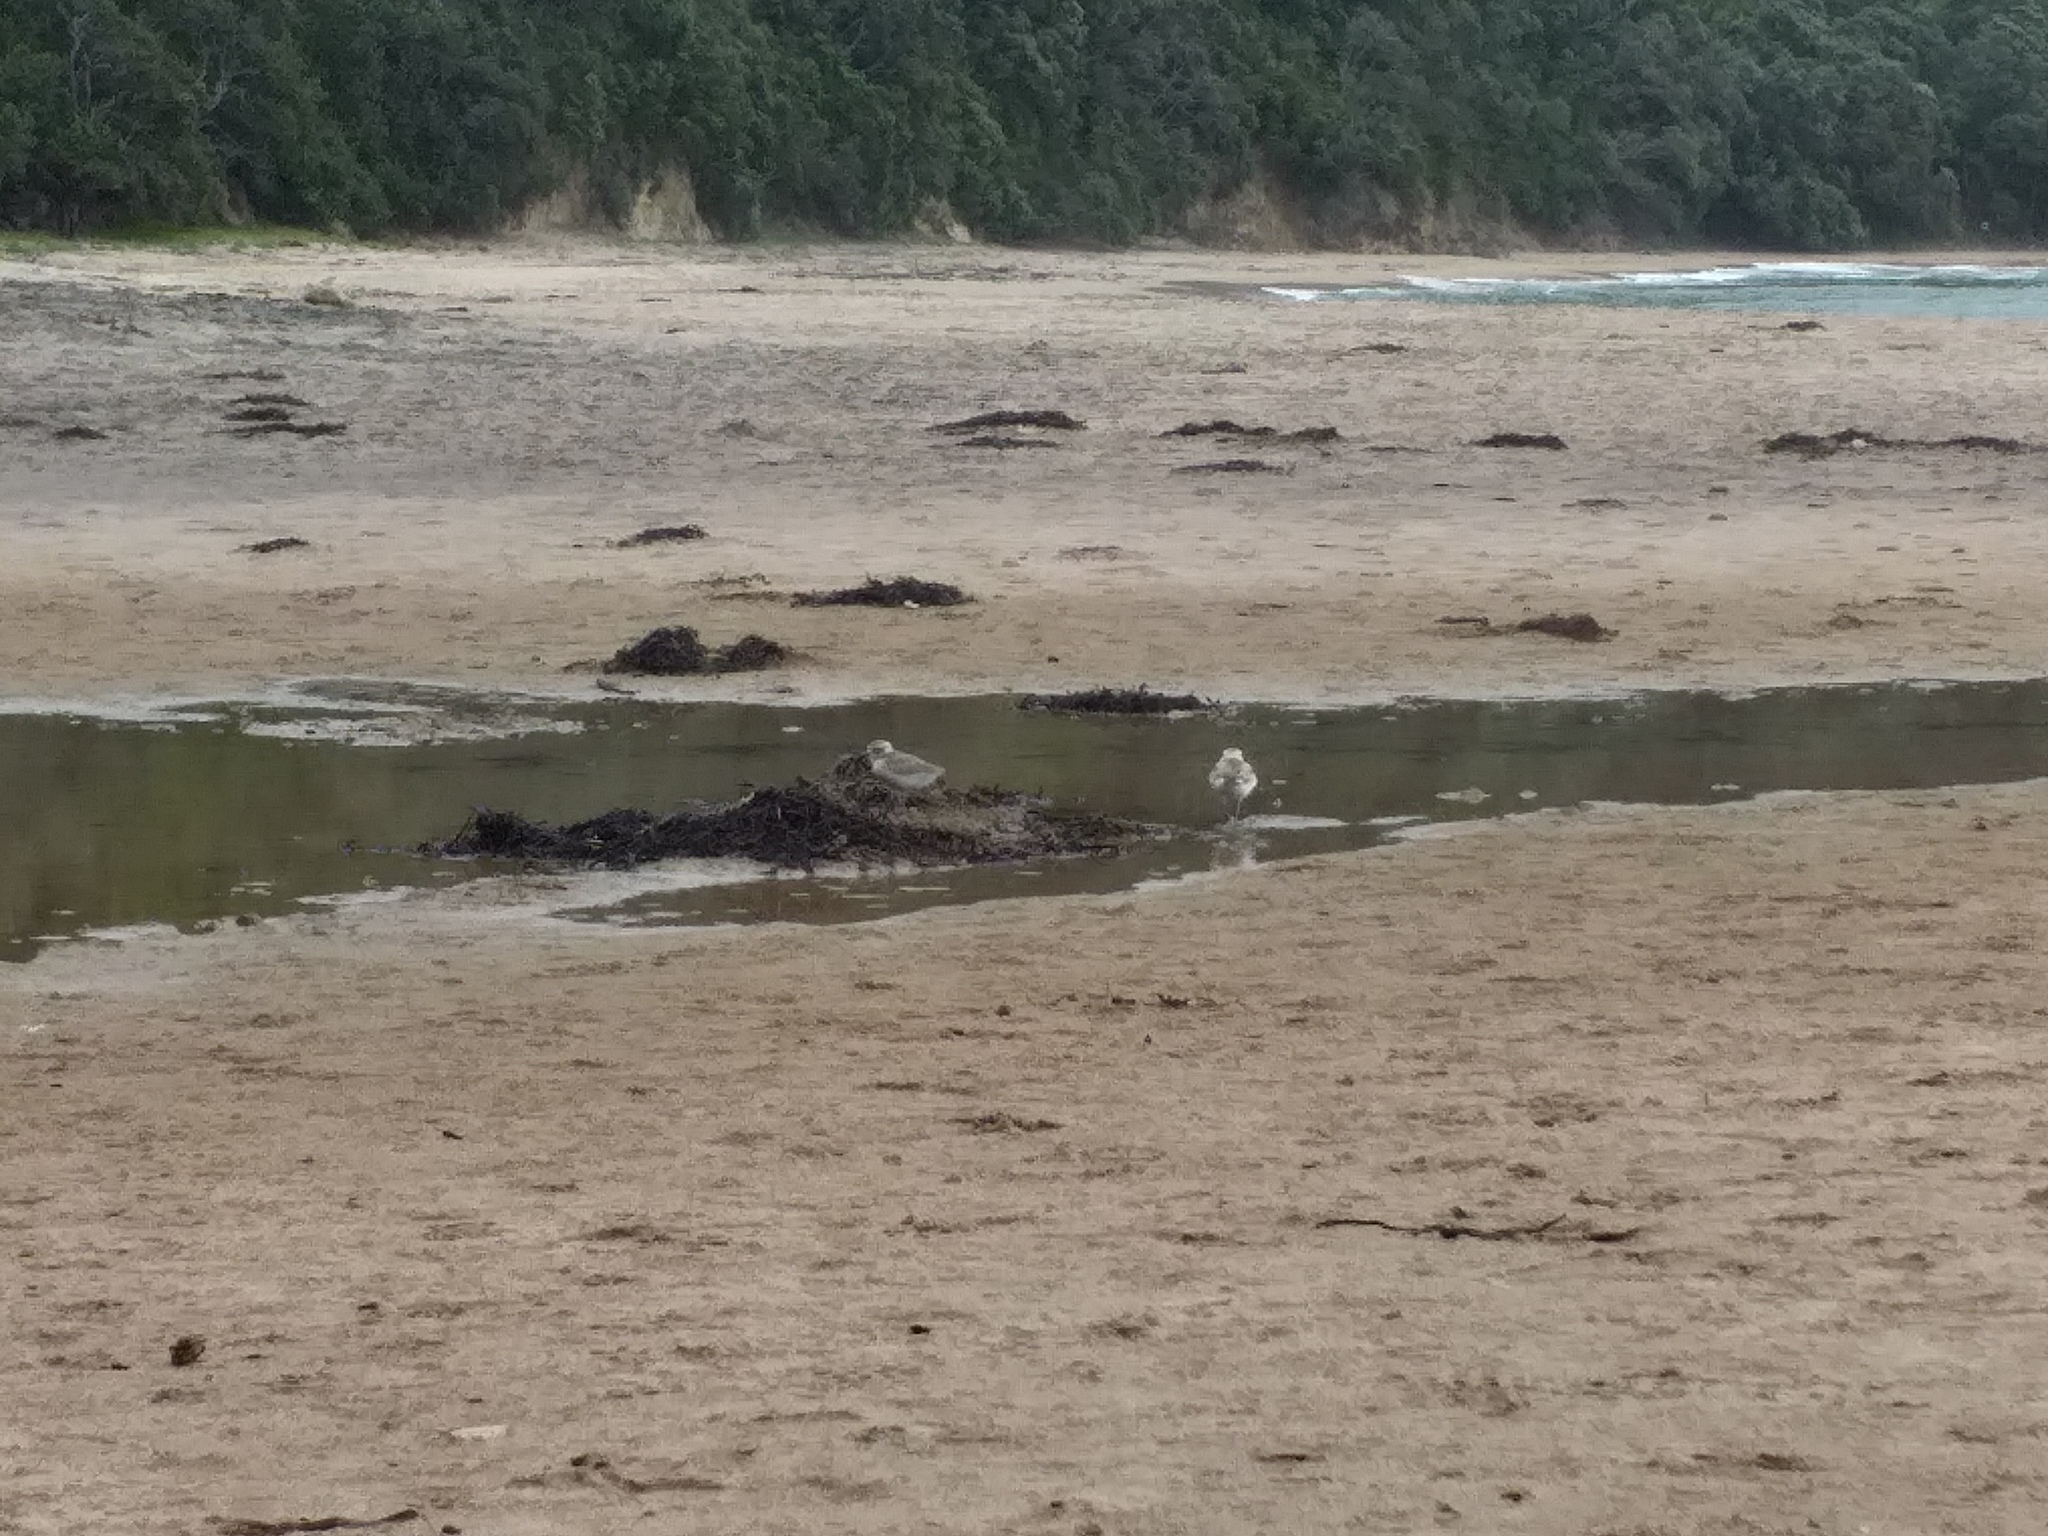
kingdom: Animalia
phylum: Chordata
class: Aves
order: Charadriiformes
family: Charadriidae
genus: Anarhynchus
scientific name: Anarhynchus
